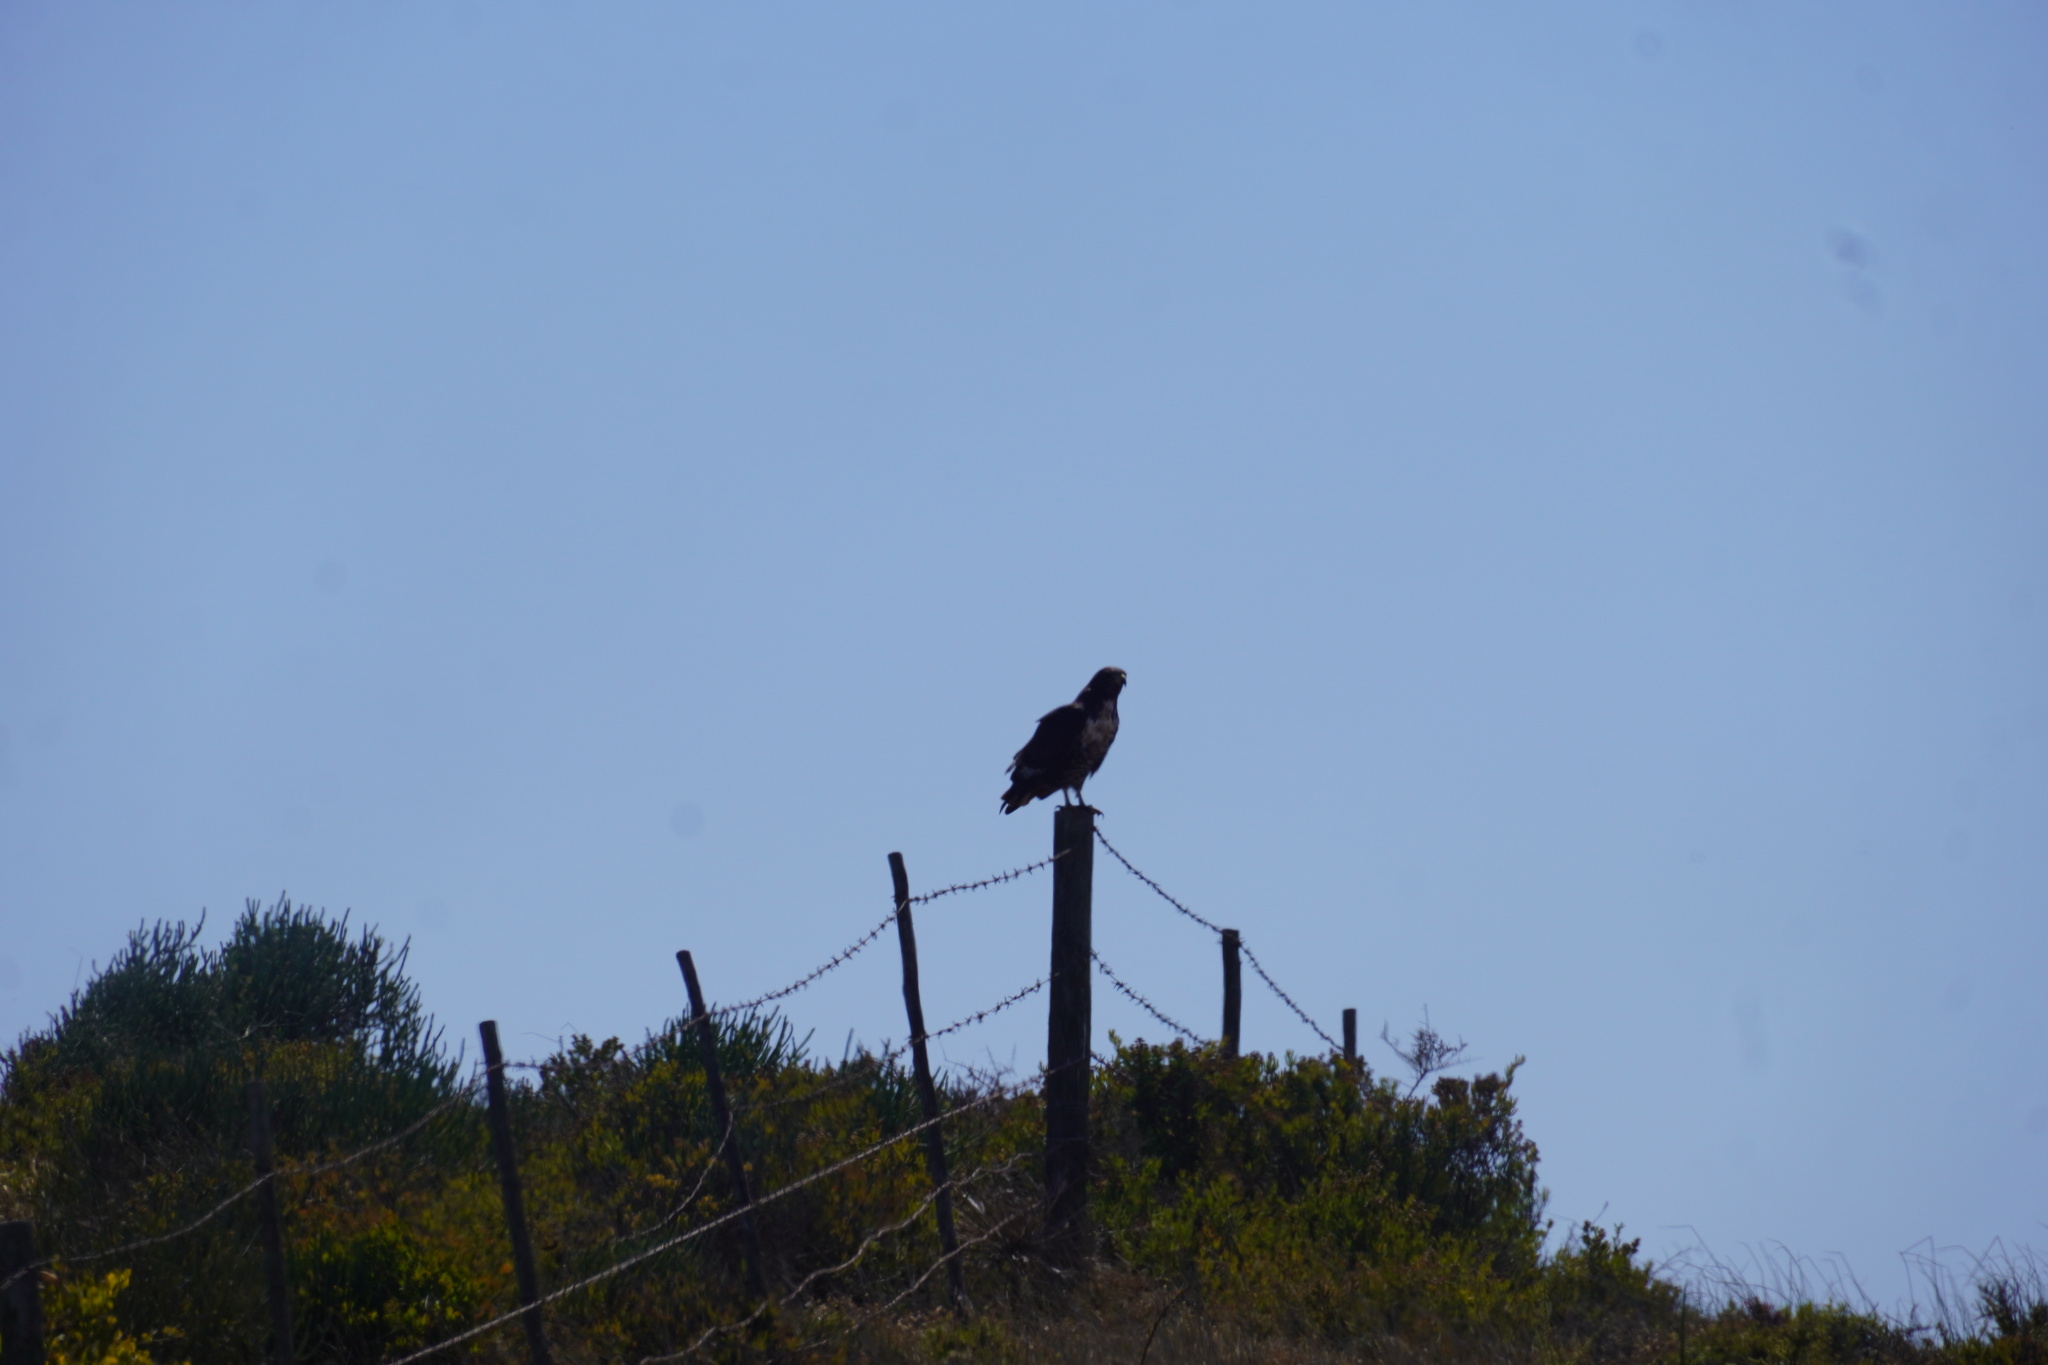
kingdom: Animalia
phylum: Chordata
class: Aves
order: Accipitriformes
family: Accipitridae
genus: Buteo
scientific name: Buteo rufofuscus
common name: Jackal buzzard
